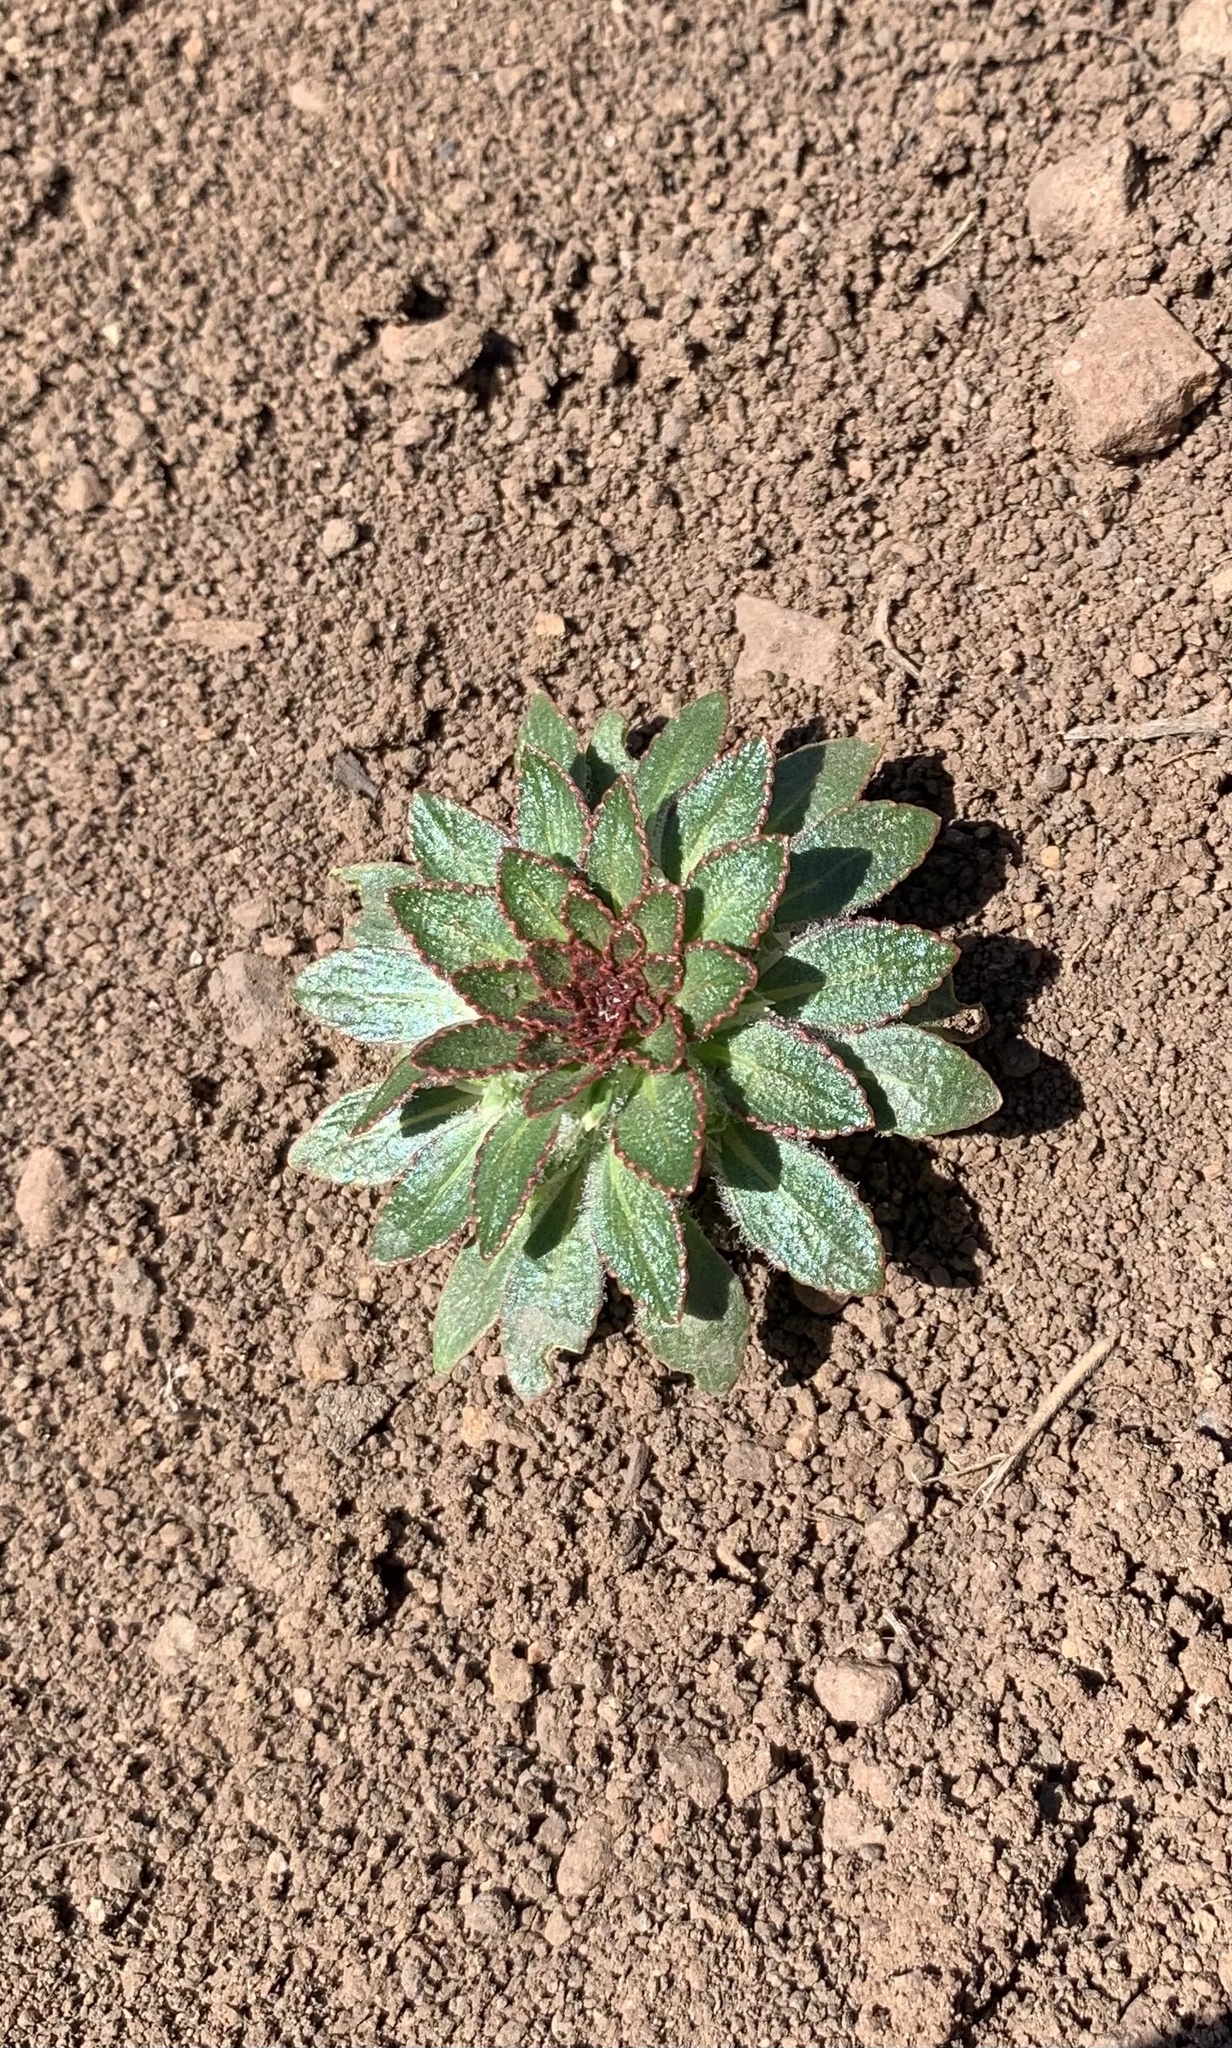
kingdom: Plantae
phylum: Tracheophyta
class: Magnoliopsida
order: Malpighiales
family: Violaceae
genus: Viola
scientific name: Viola subandina
